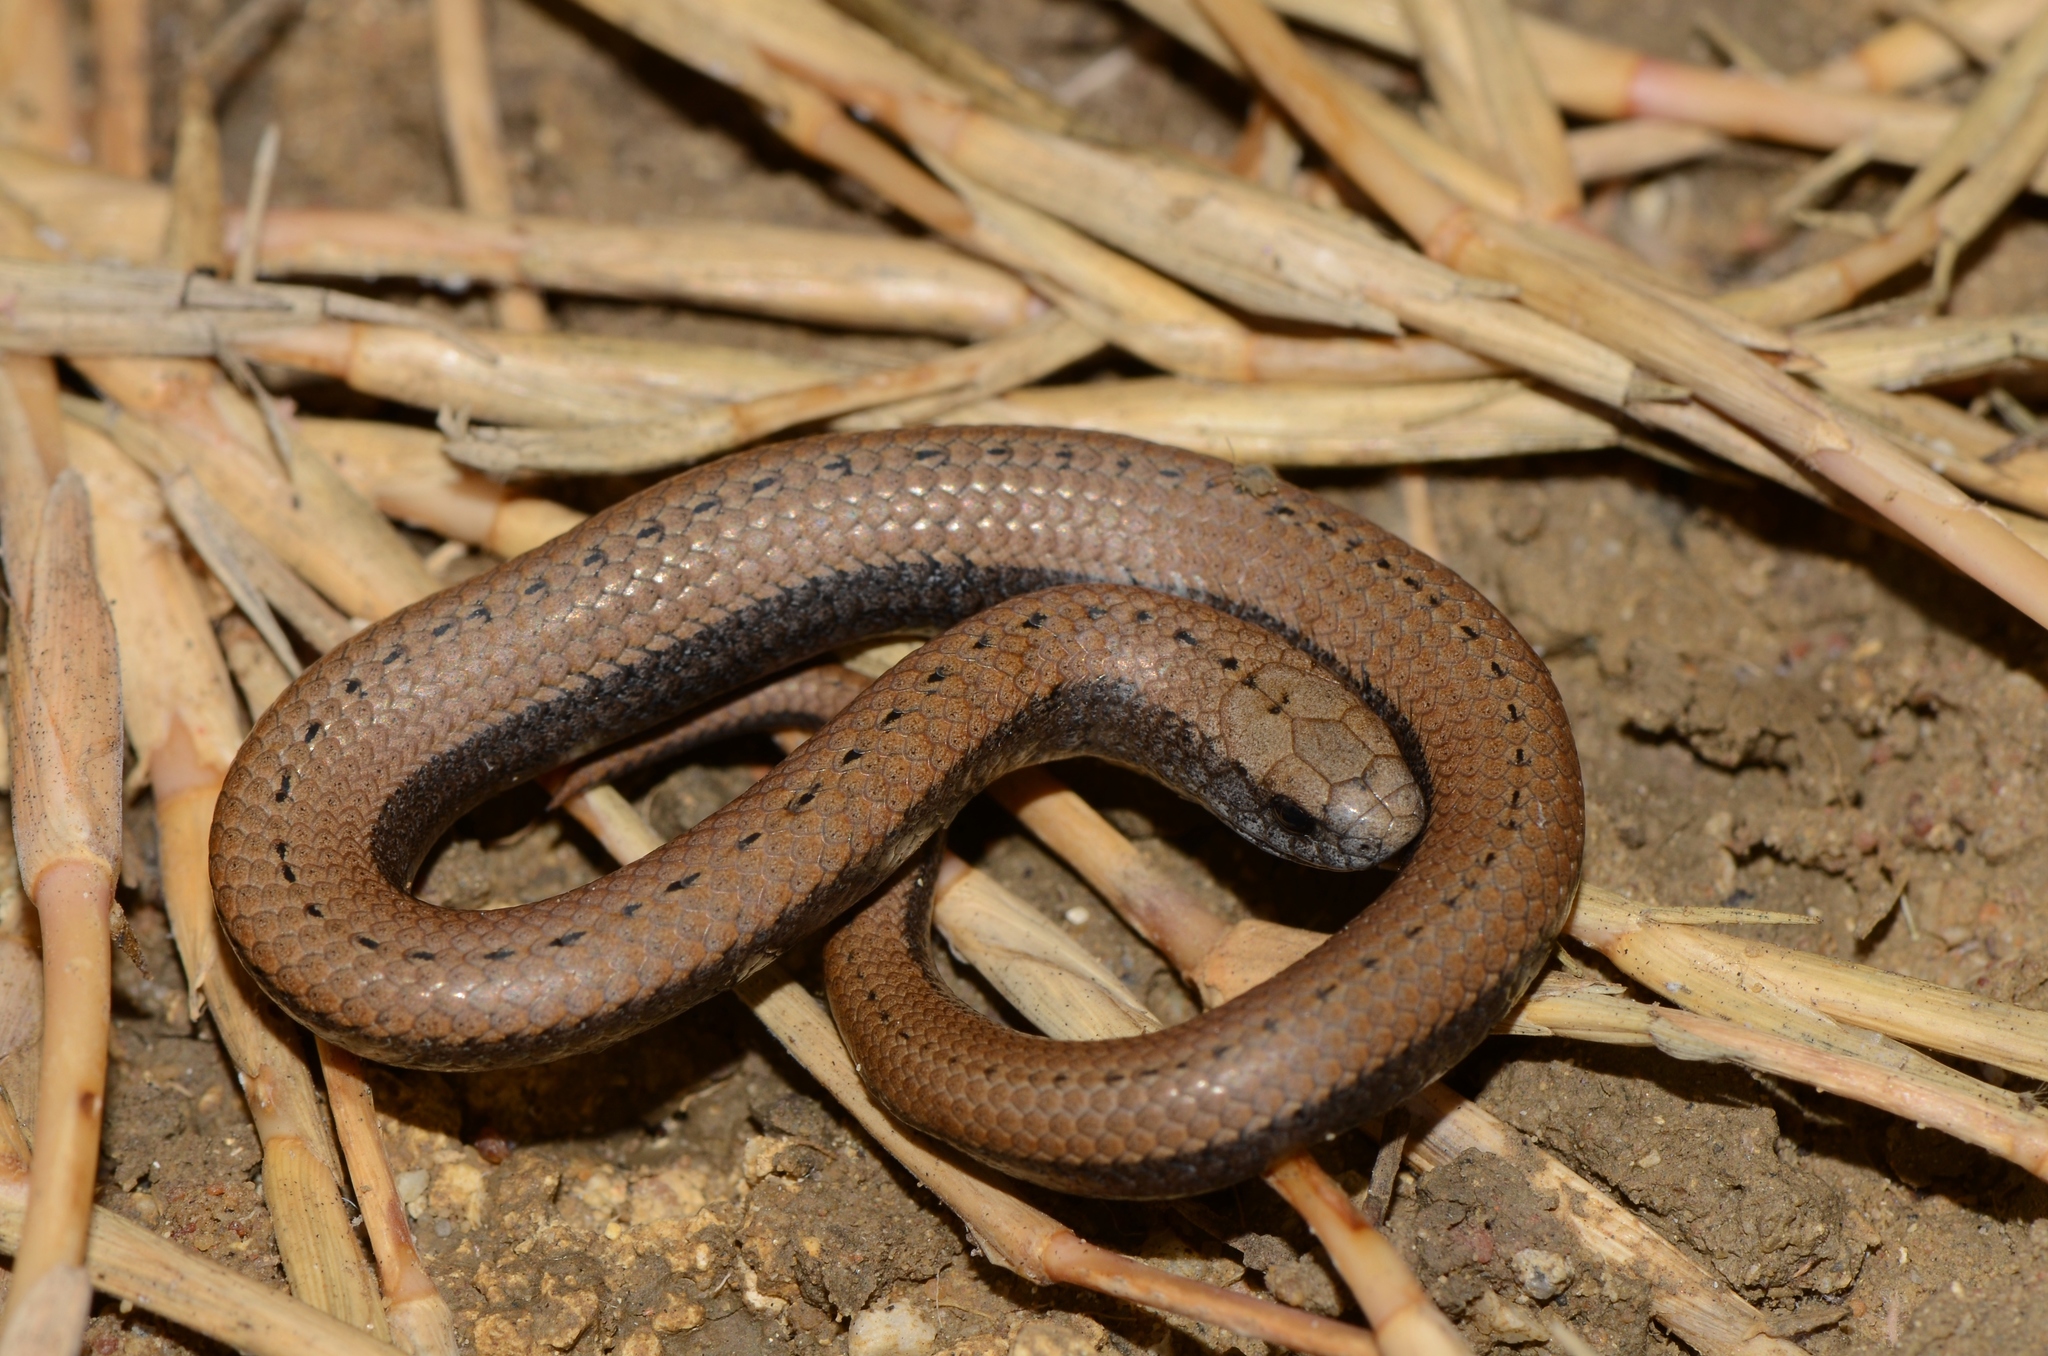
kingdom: Animalia
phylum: Chordata
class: Squamata
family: Pseudoxyrhophiidae
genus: Duberria
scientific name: Duberria lutrix
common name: Common slug eater
